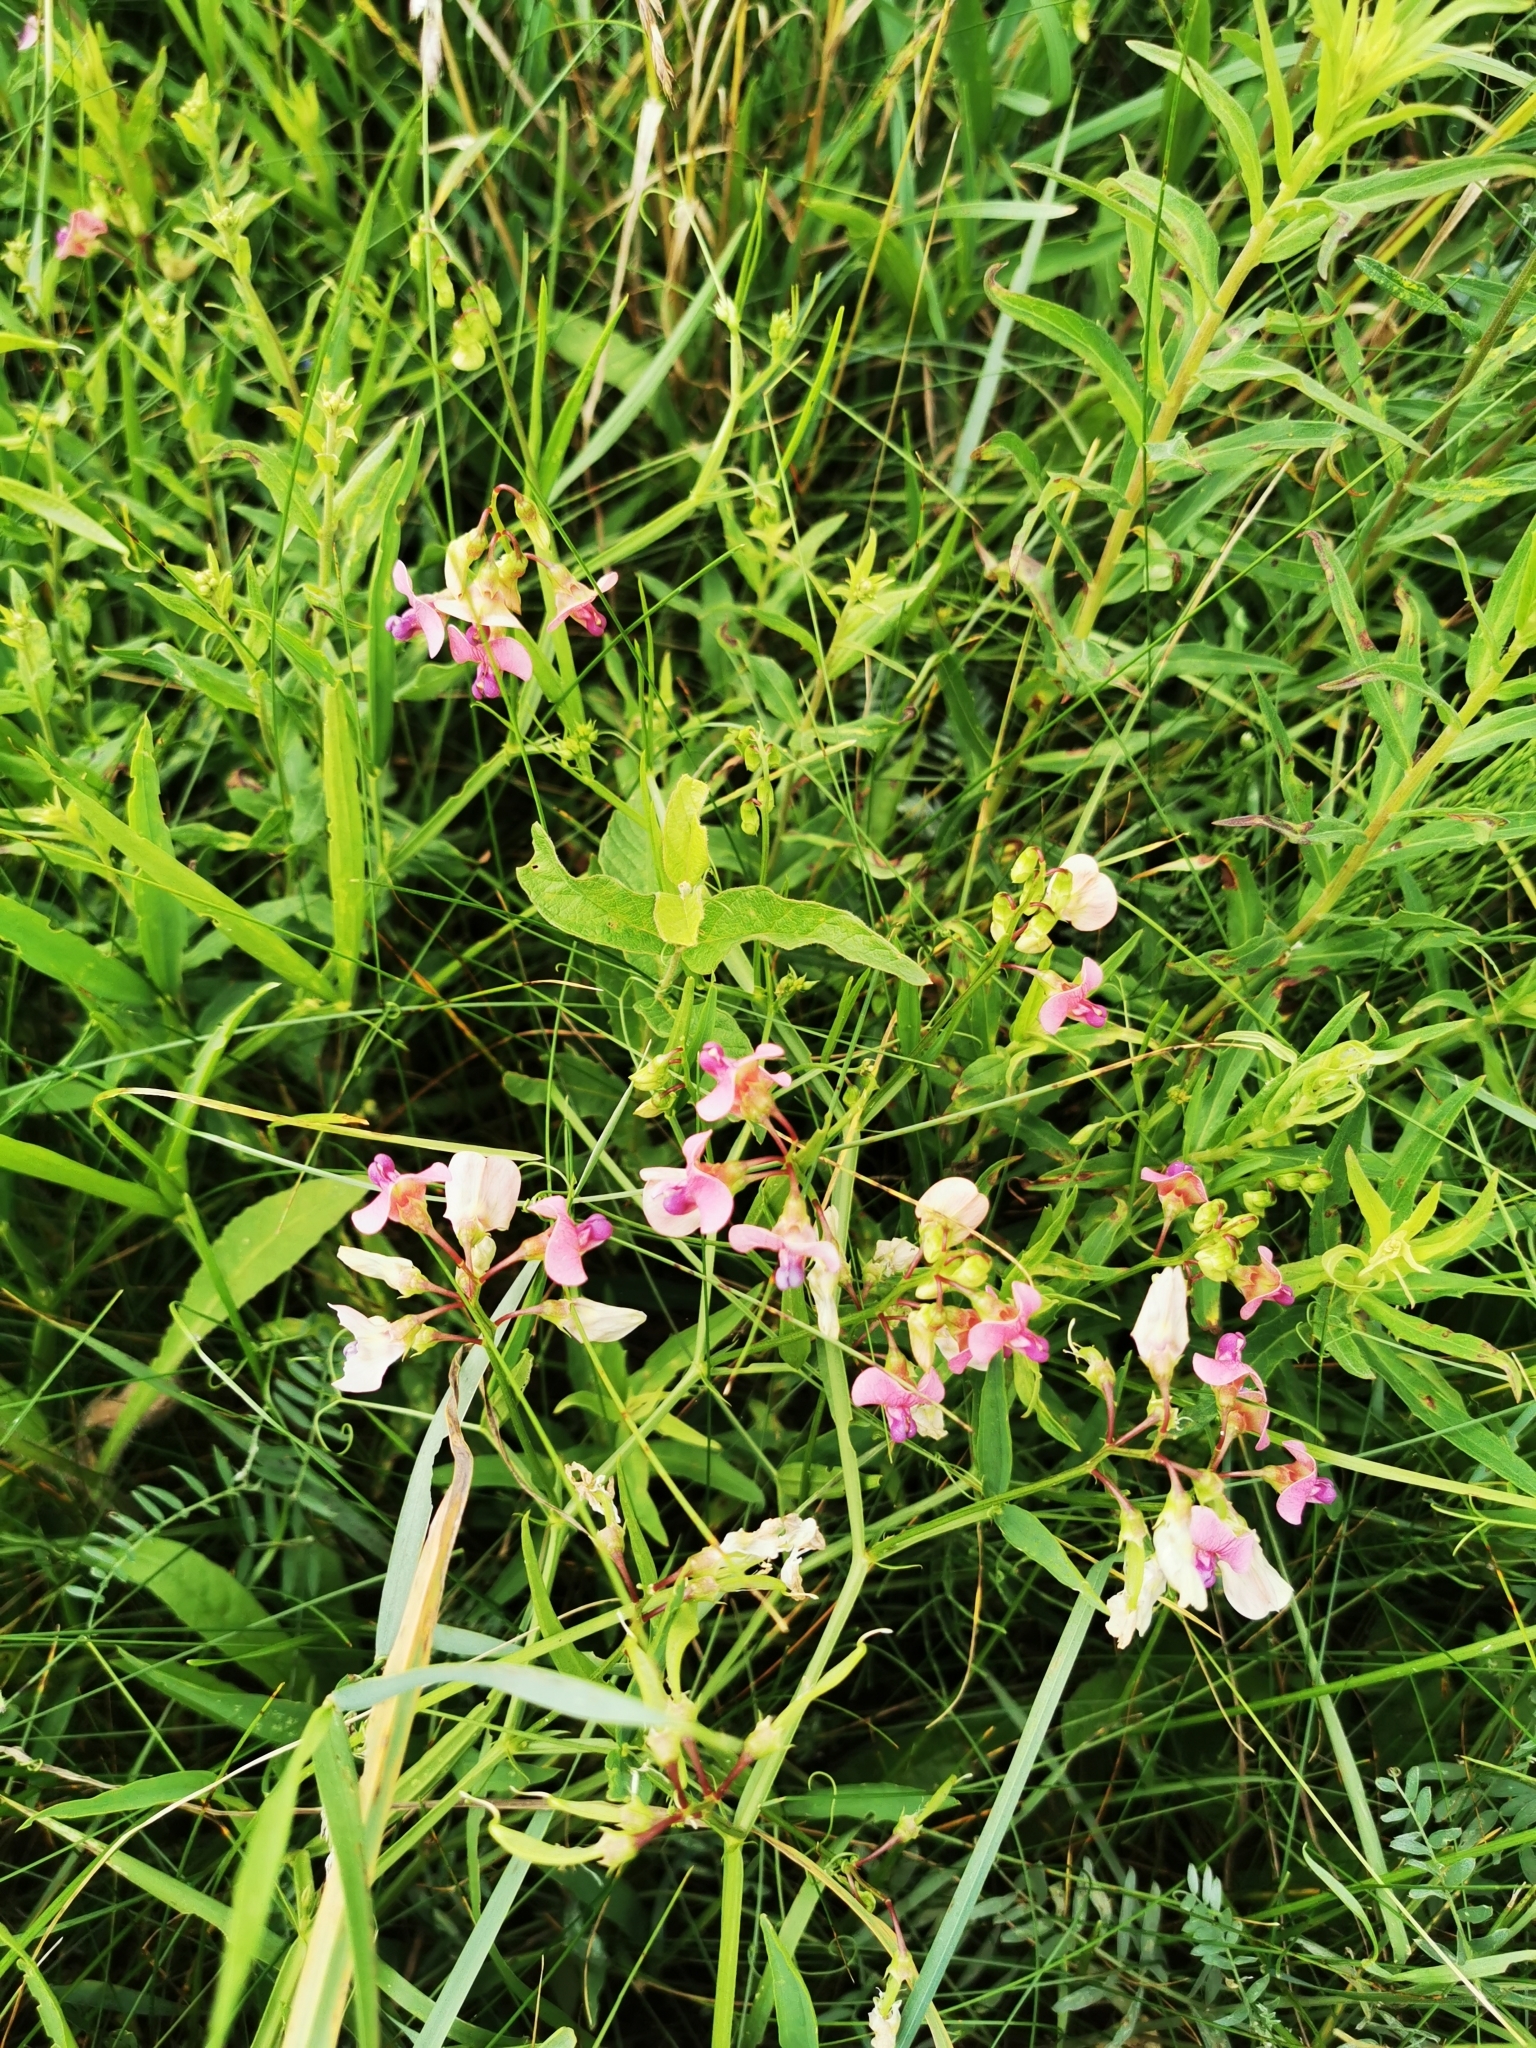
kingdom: Plantae
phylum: Tracheophyta
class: Magnoliopsida
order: Fabales
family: Fabaceae
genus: Lathyrus
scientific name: Lathyrus sylvestris
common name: Flat pea
